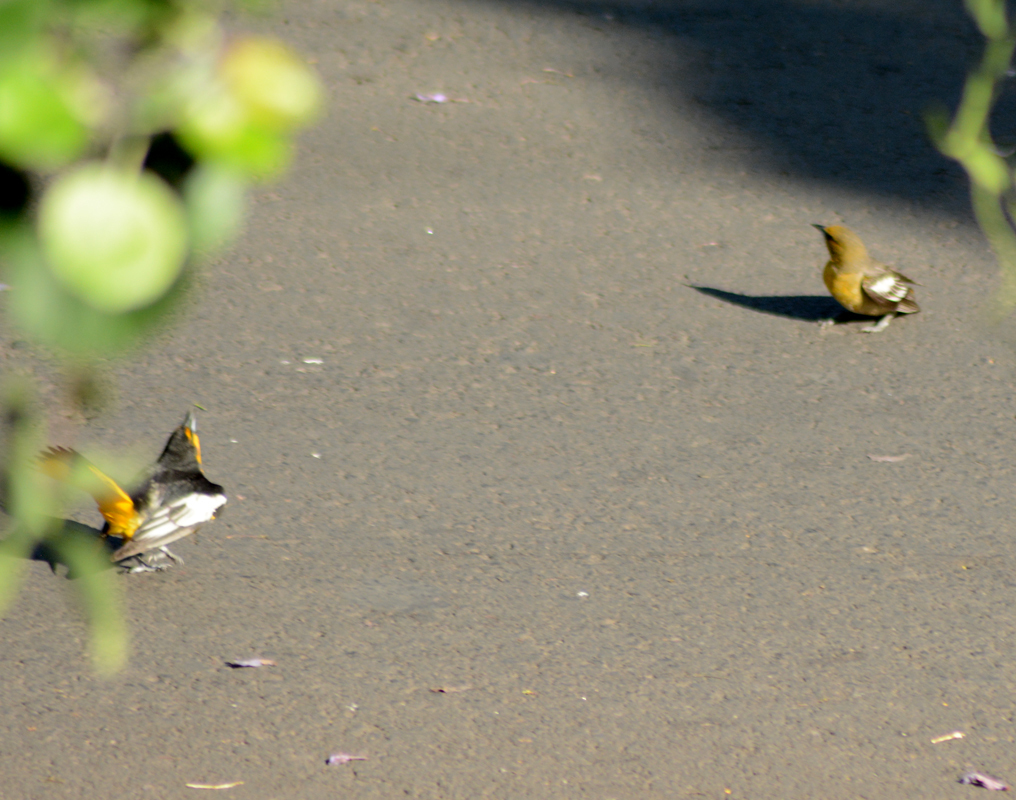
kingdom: Animalia
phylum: Chordata
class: Aves
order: Passeriformes
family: Icteridae
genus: Icterus
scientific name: Icterus abeillei
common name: Black-backed oriole
